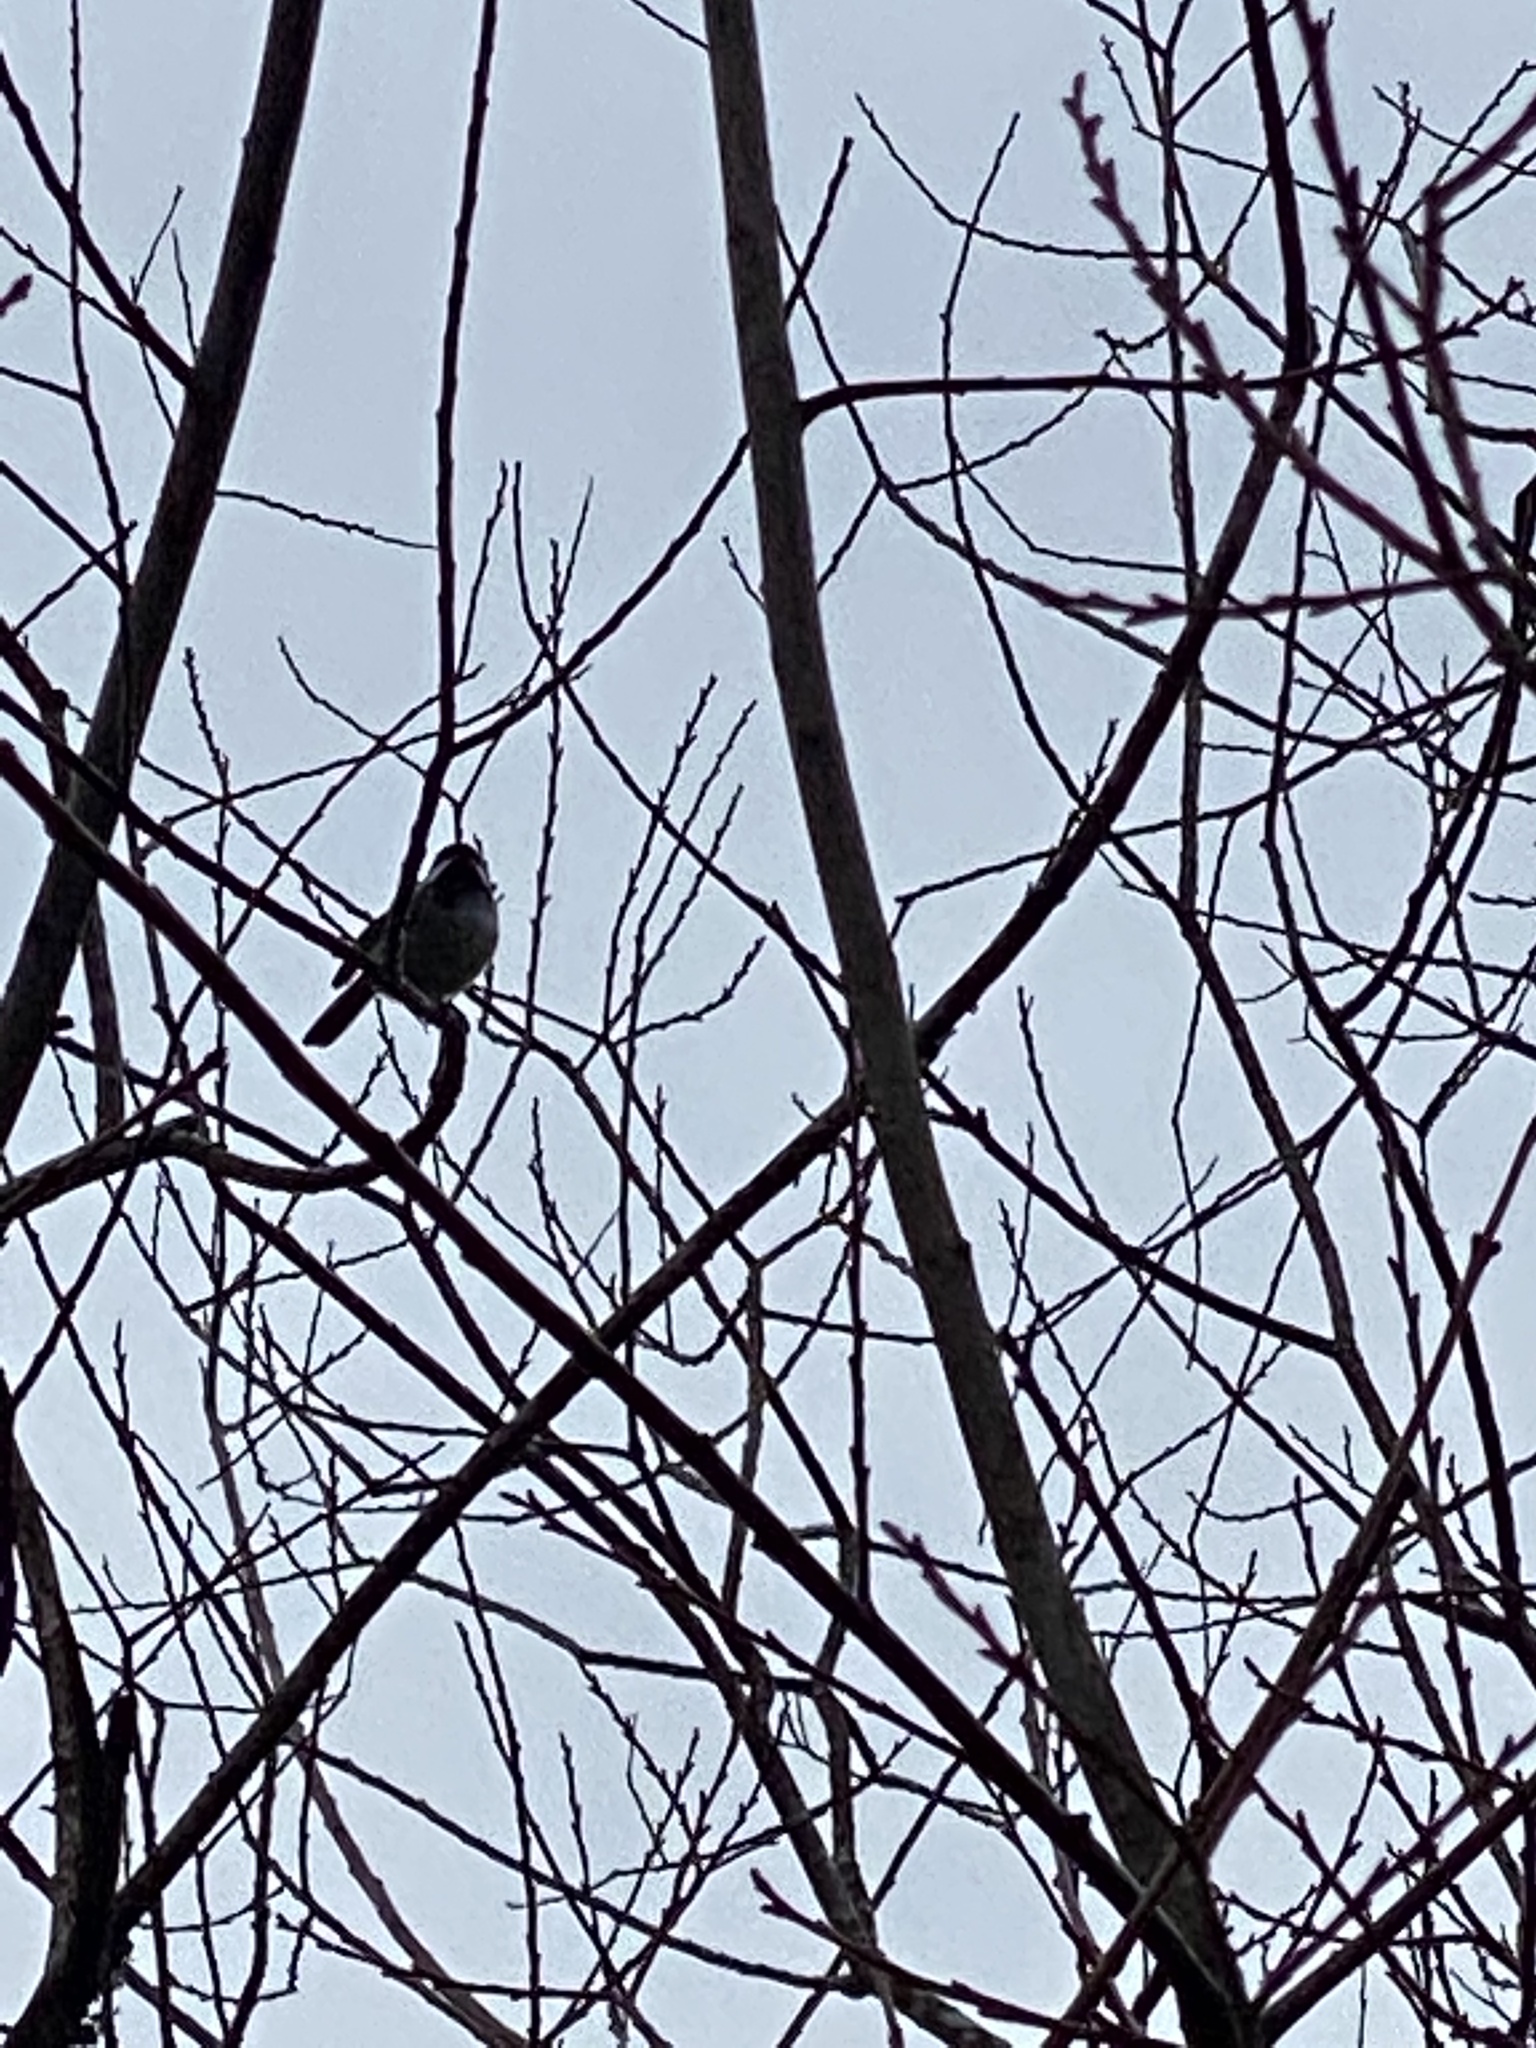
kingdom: Animalia
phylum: Chordata
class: Aves
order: Passeriformes
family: Paridae
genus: Poecile
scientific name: Poecile atricapillus
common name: Black-capped chickadee
